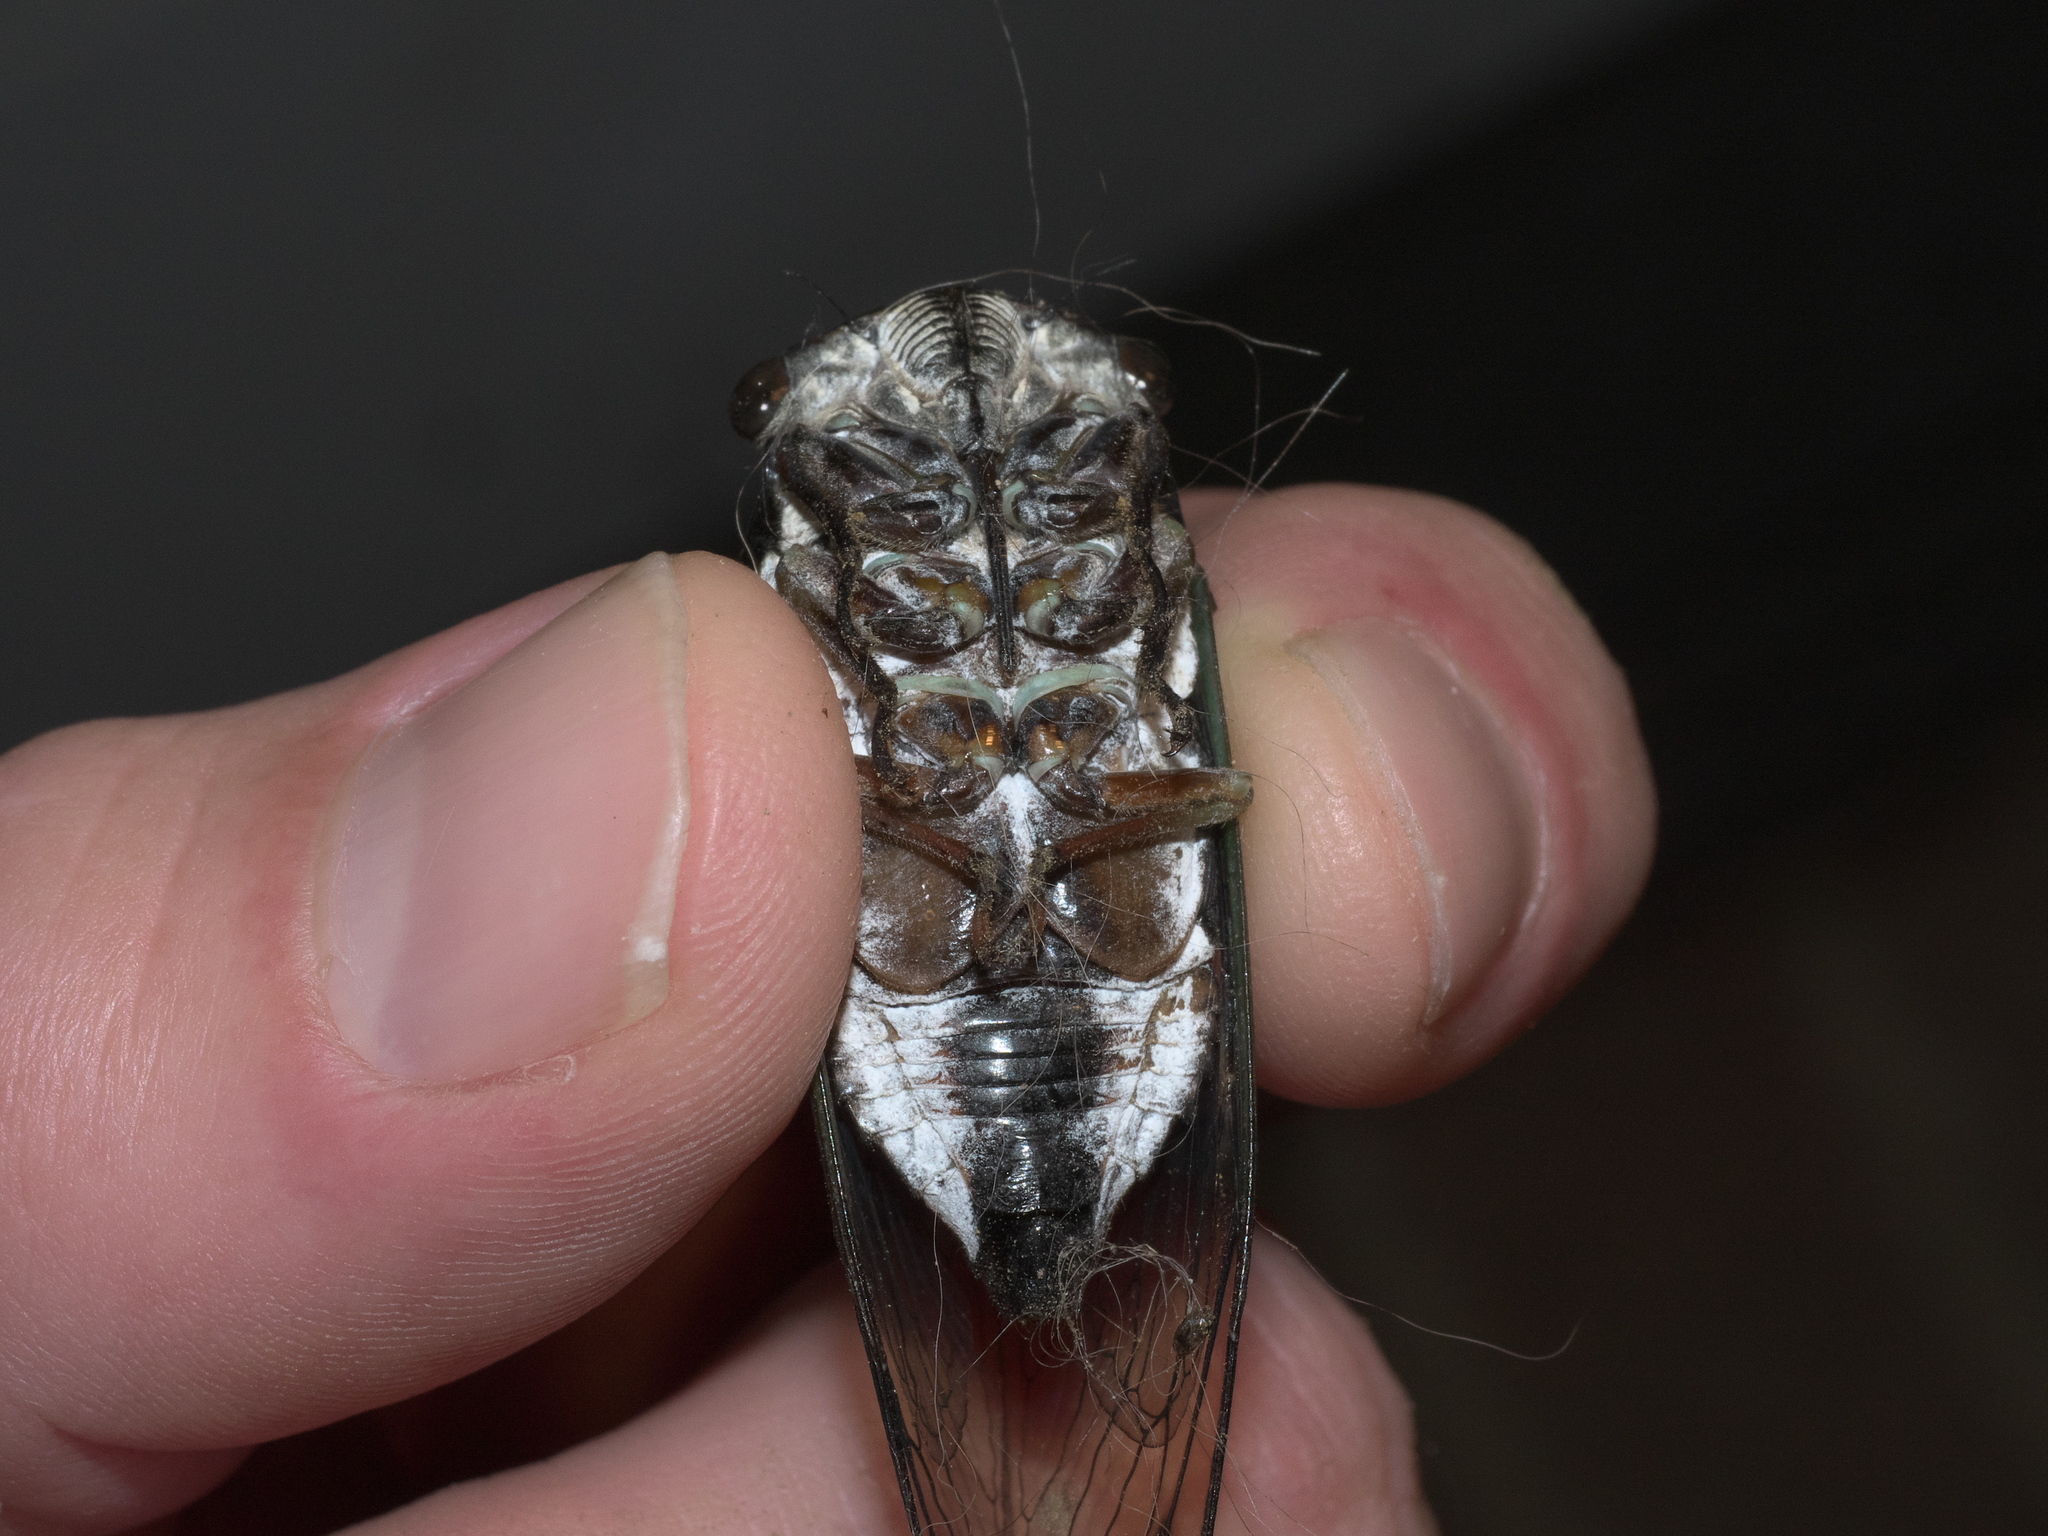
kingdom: Animalia
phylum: Arthropoda
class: Insecta
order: Hemiptera
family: Cicadidae
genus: Neotibicen
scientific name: Neotibicen lyricen
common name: Lyric cicada
